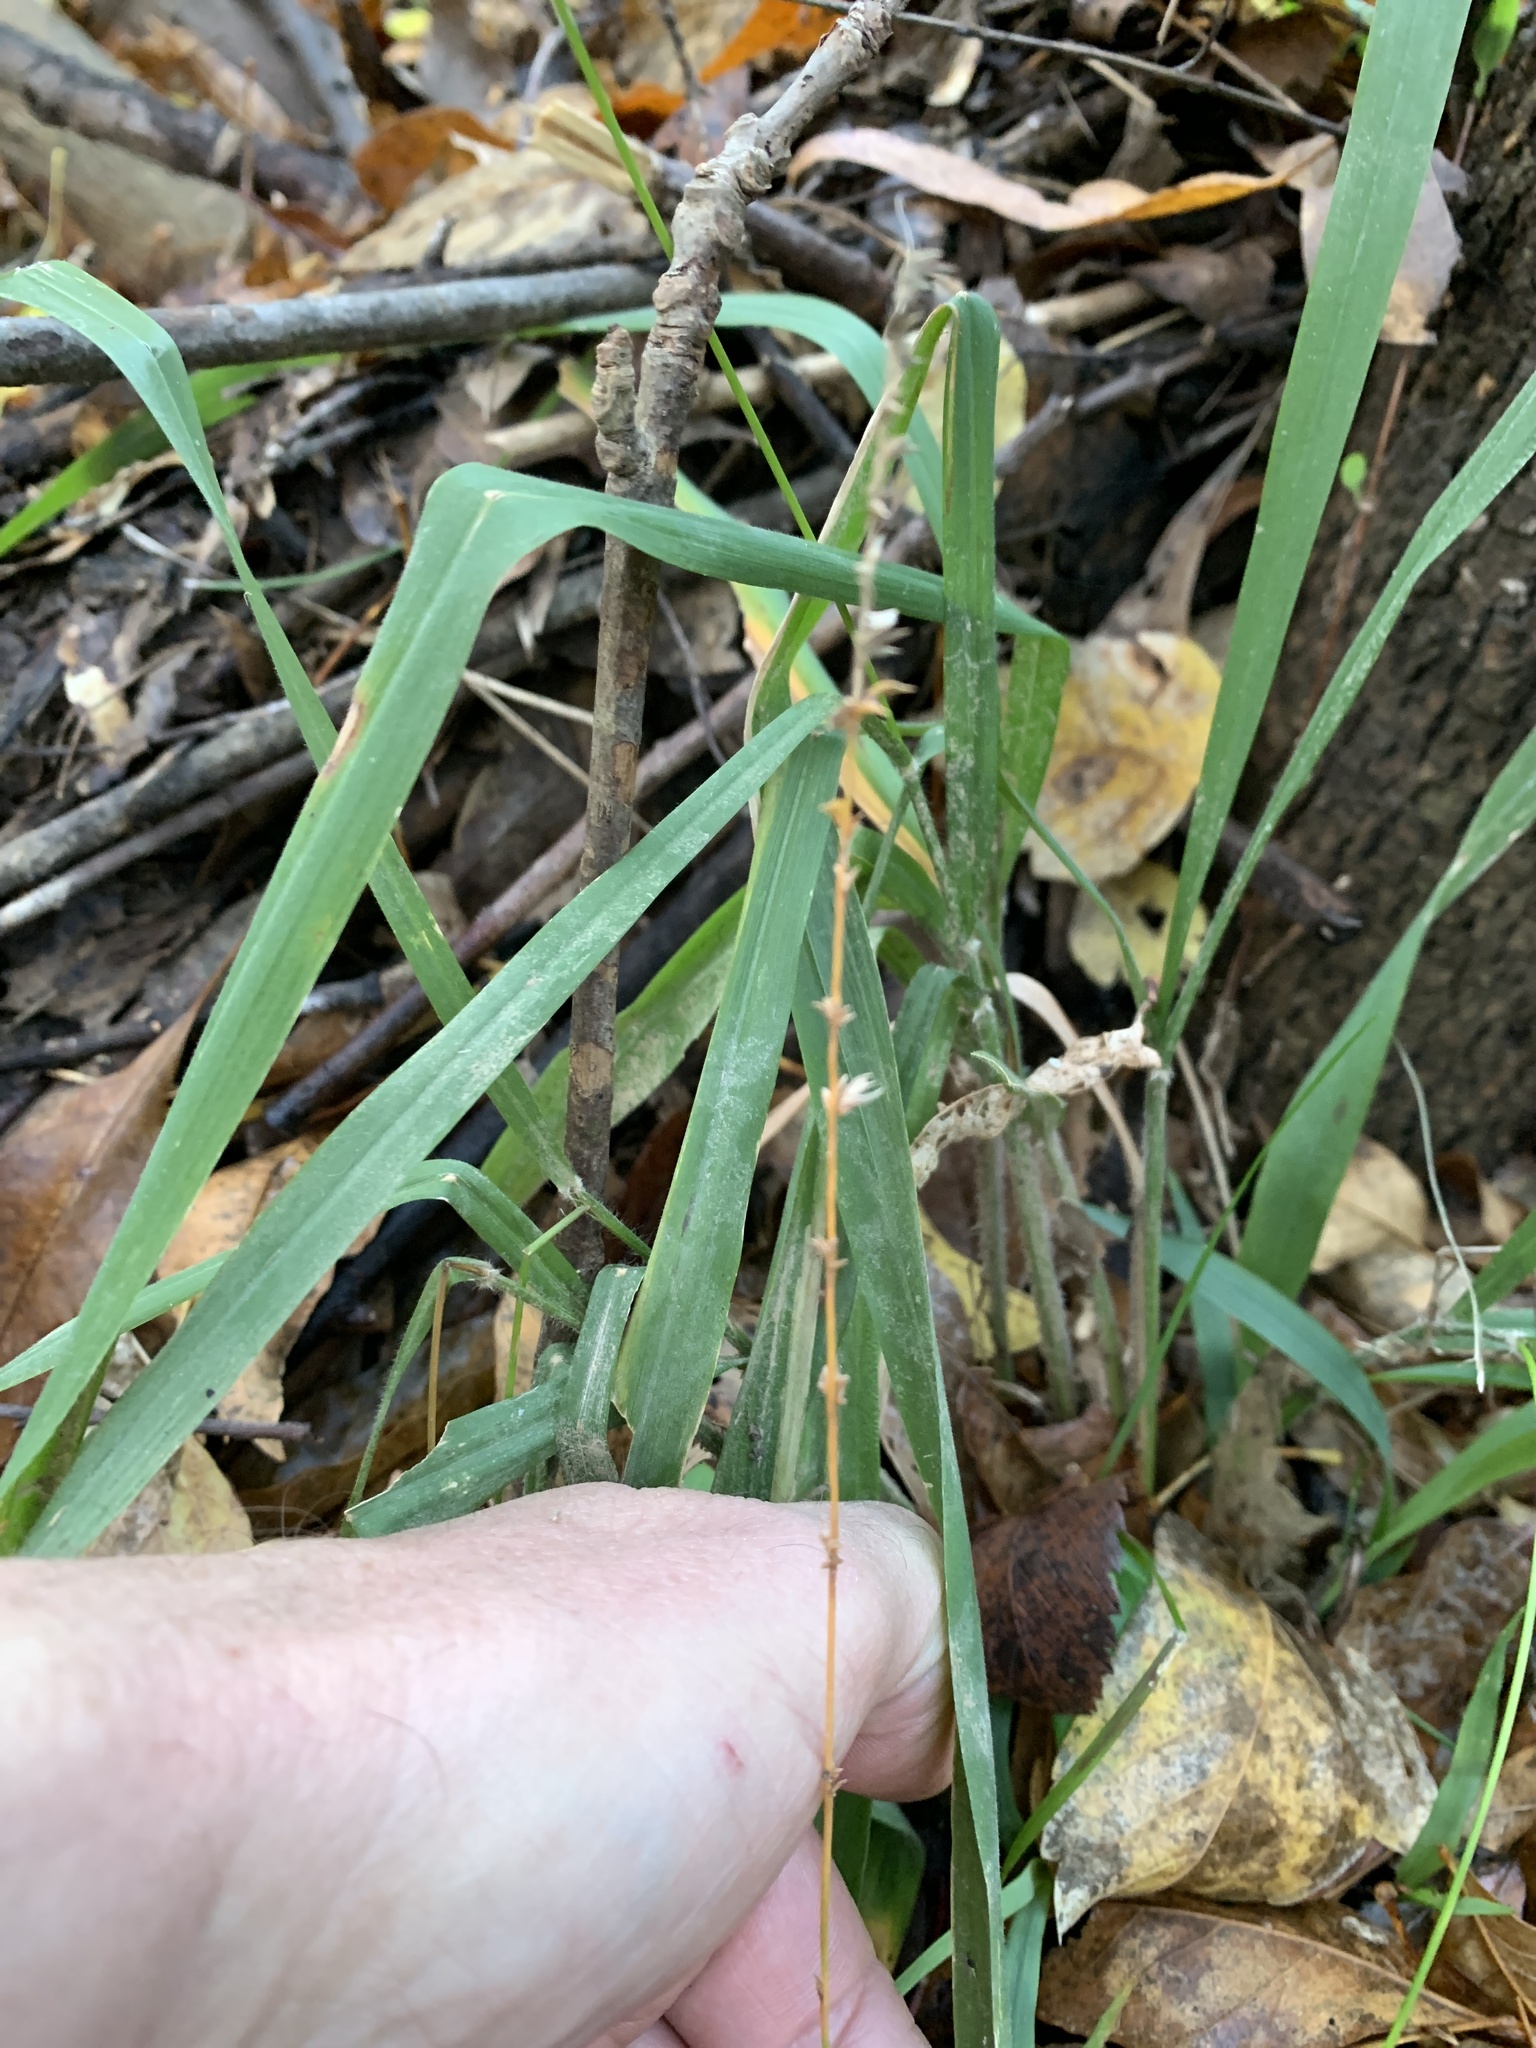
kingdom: Plantae
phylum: Tracheophyta
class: Liliopsida
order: Poales
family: Poaceae
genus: Chasmanthium
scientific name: Chasmanthium laxum
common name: Slender chasmanthium
